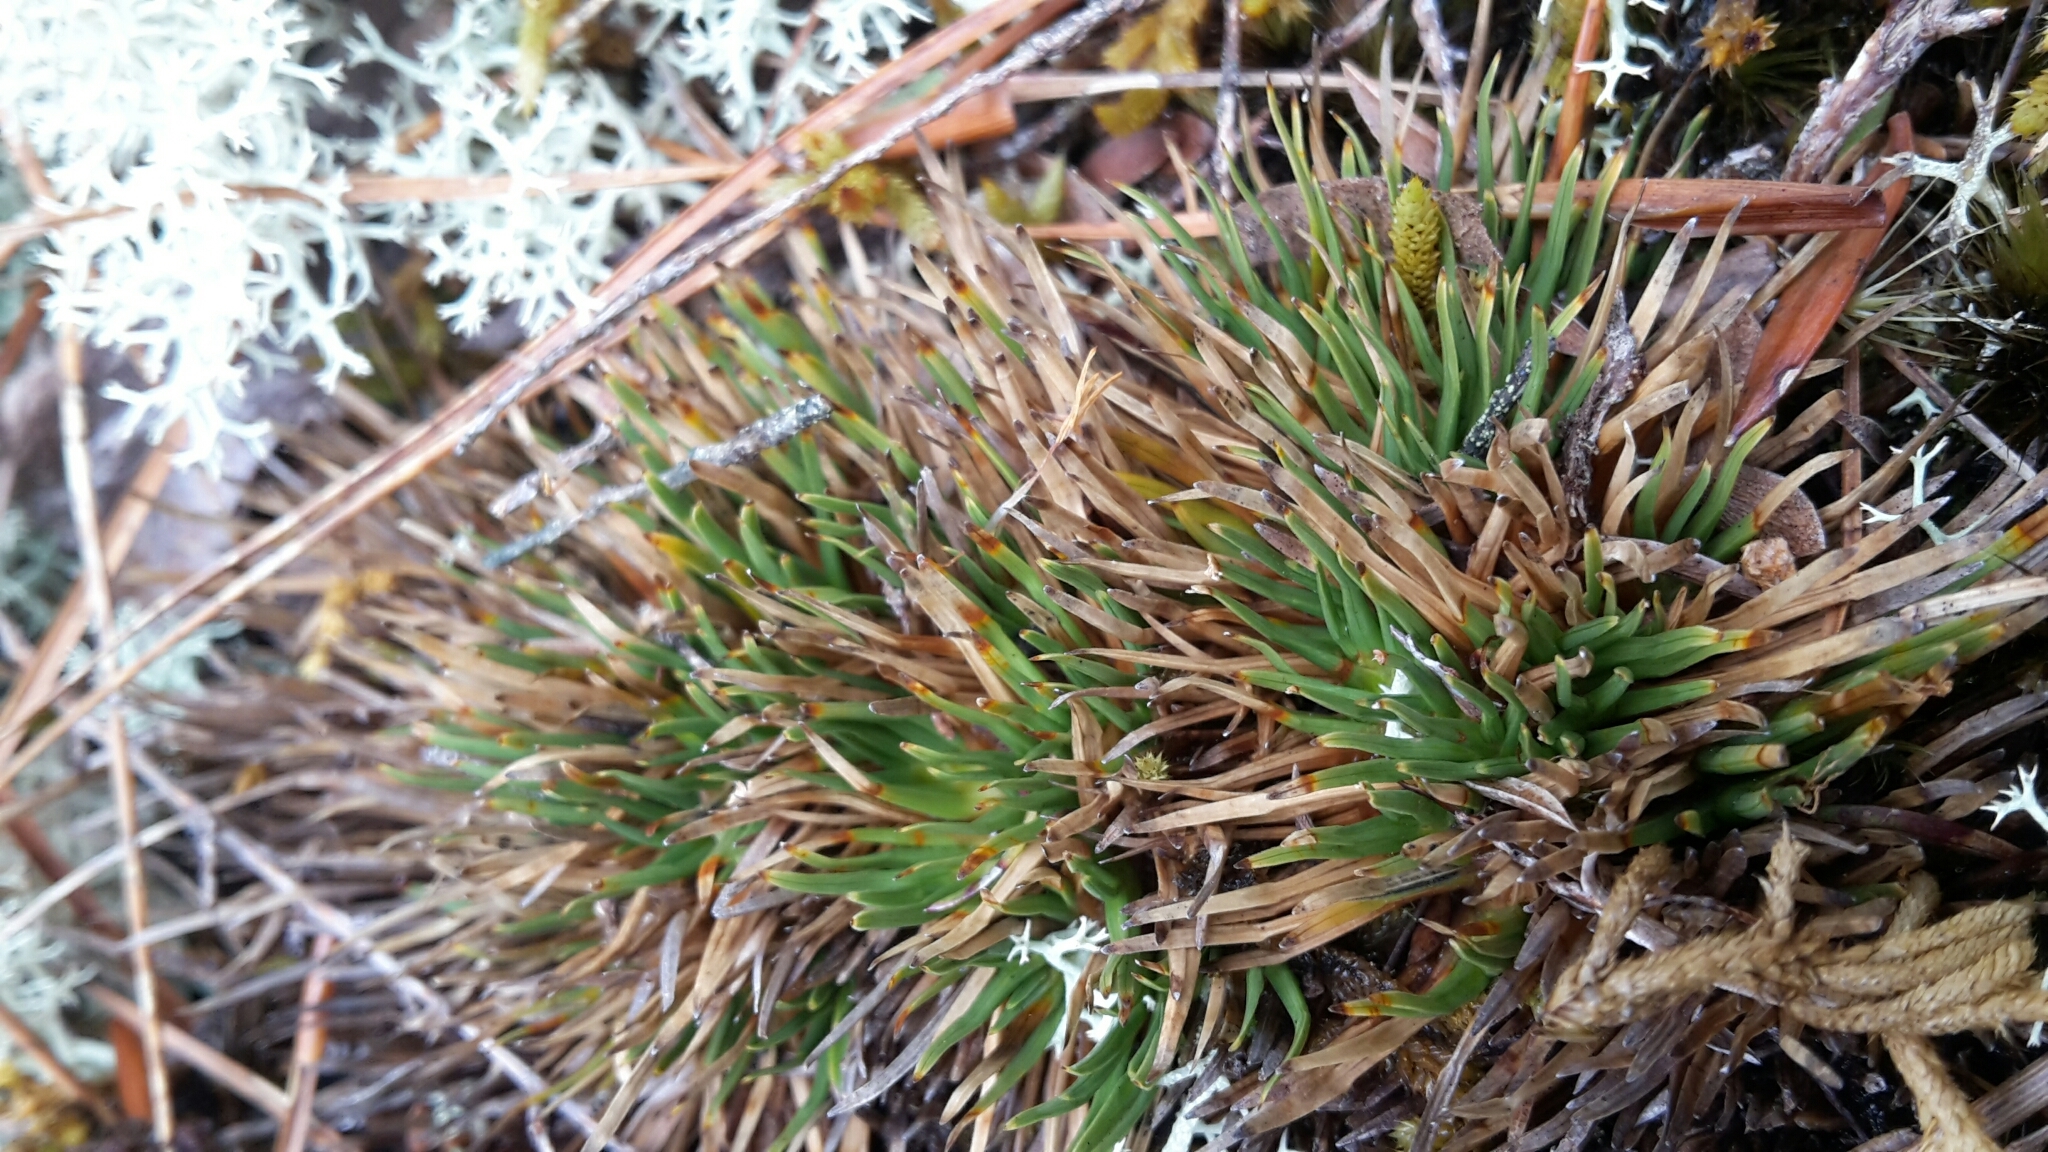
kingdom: Plantae
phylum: Tracheophyta
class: Liliopsida
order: Poales
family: Cyperaceae
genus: Oreobolus
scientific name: Oreobolus pectinatus
